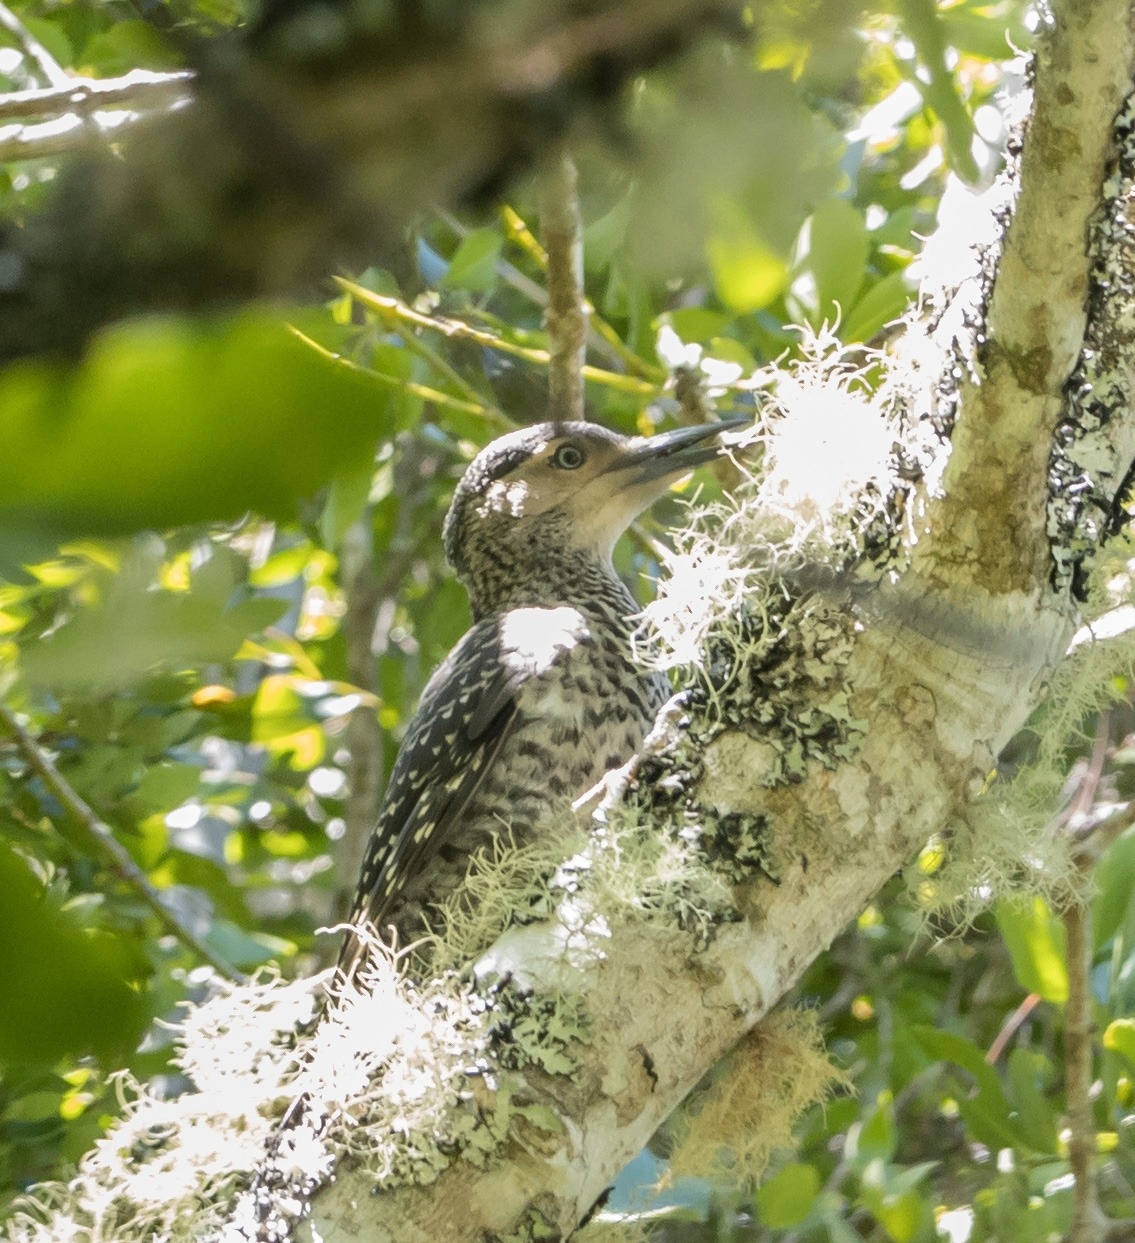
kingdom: Animalia
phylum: Chordata
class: Aves
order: Piciformes
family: Picidae
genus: Colaptes
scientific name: Colaptes pitius
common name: Chilean flicker
